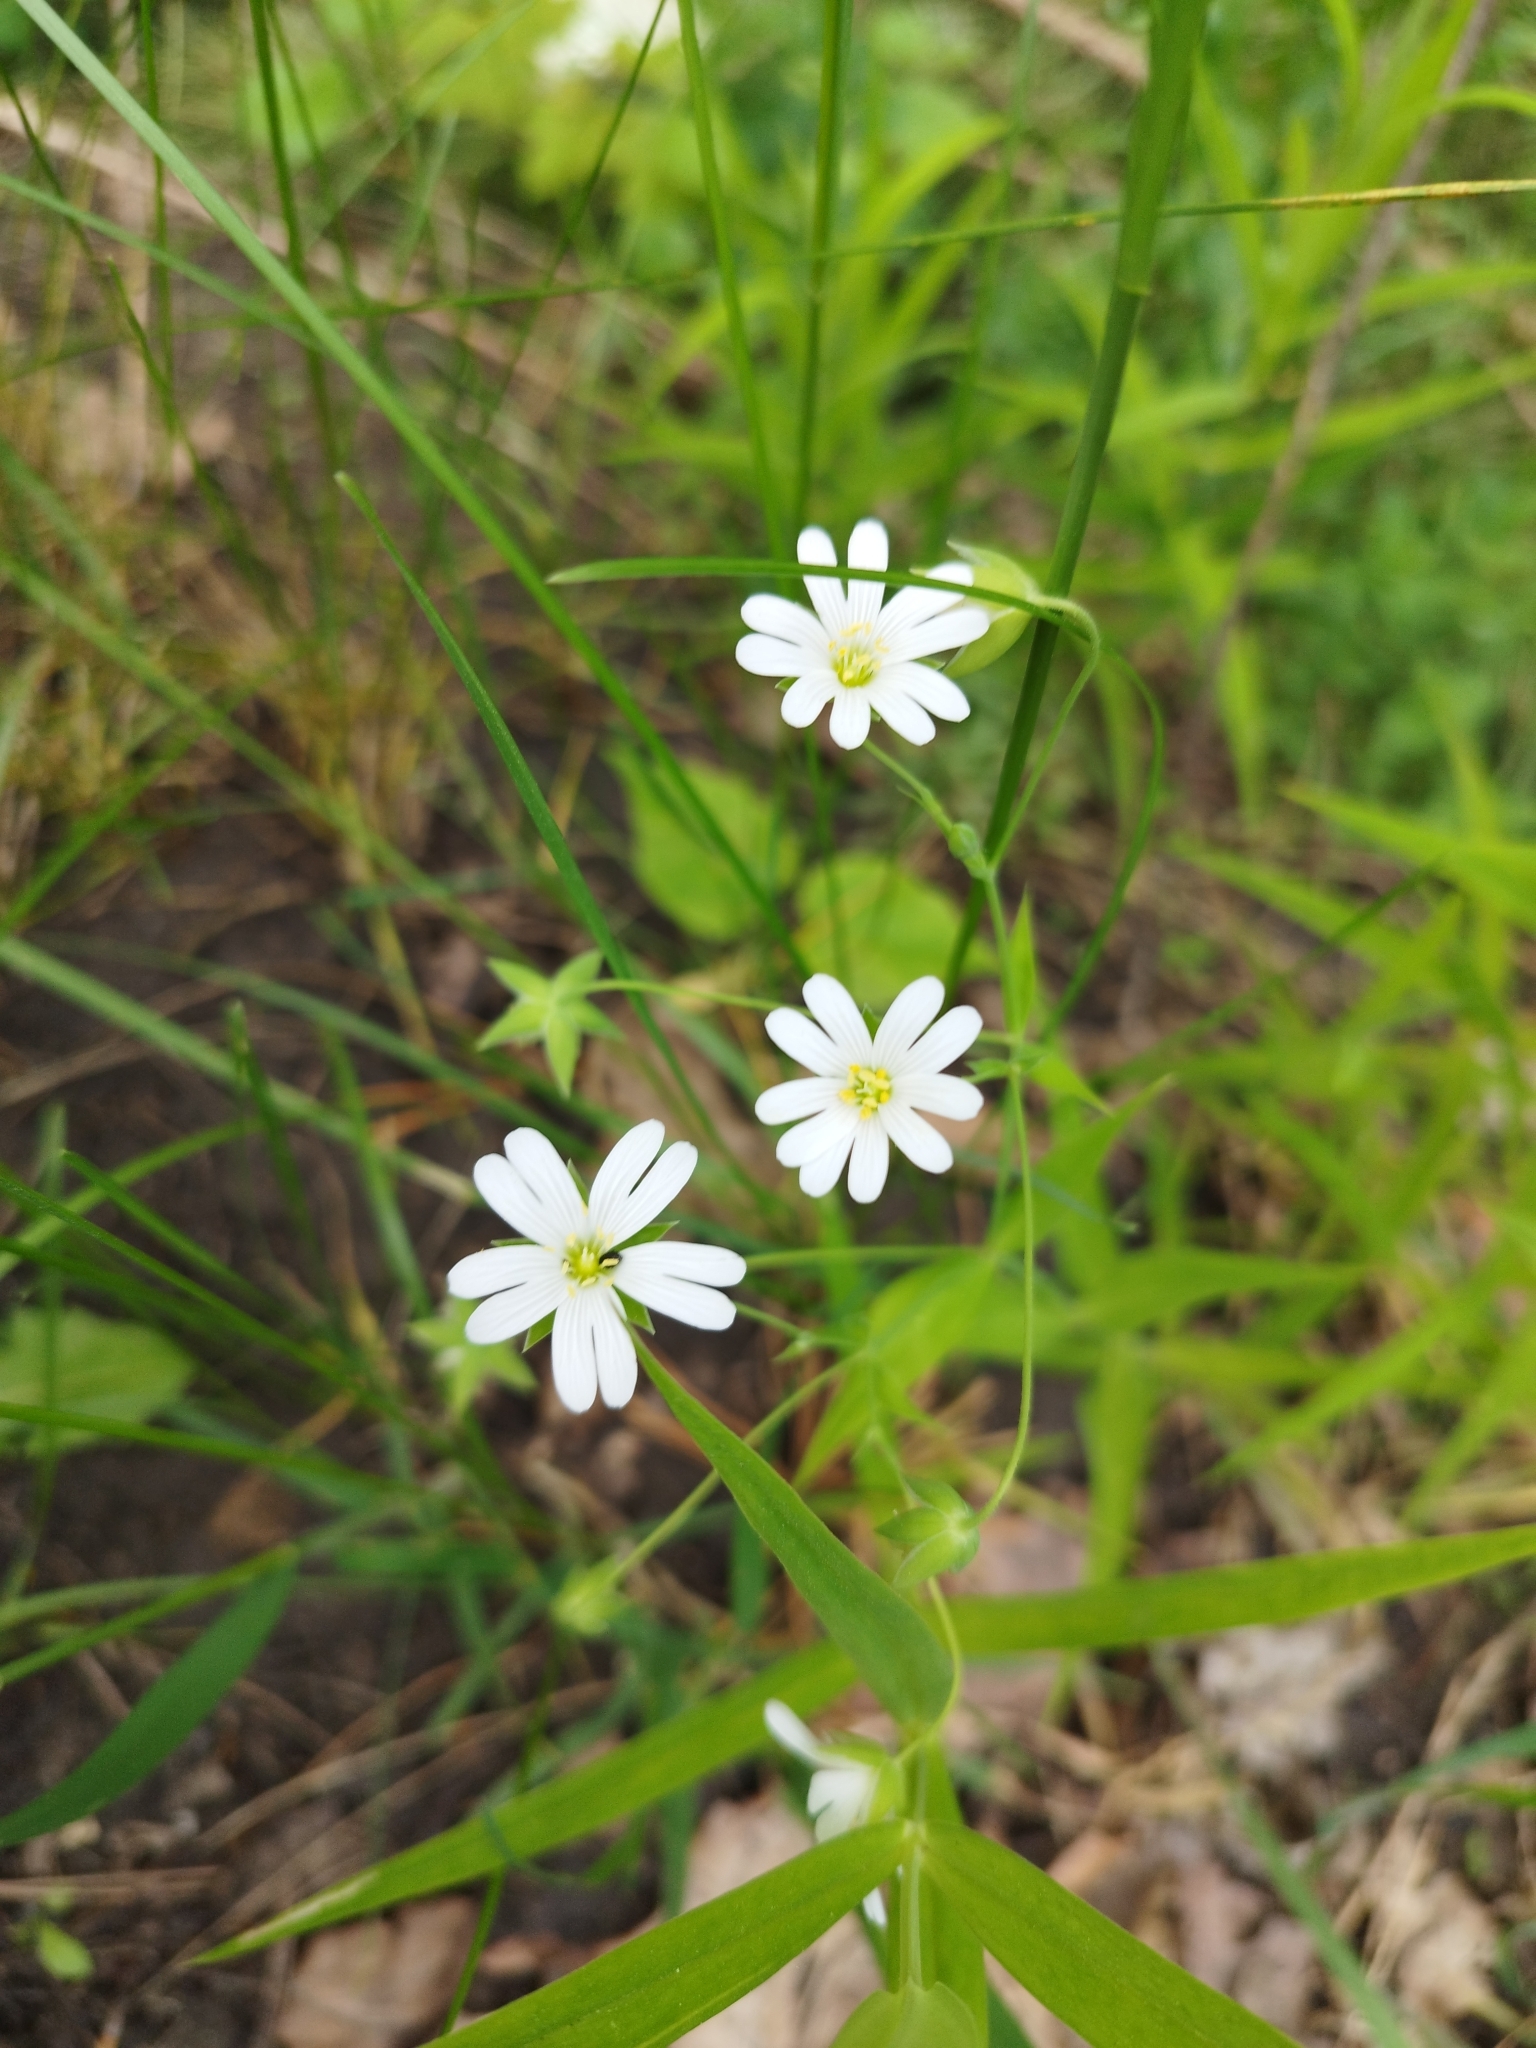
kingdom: Plantae
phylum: Tracheophyta
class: Magnoliopsida
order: Caryophyllales
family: Caryophyllaceae
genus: Rabelera
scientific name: Rabelera holostea
